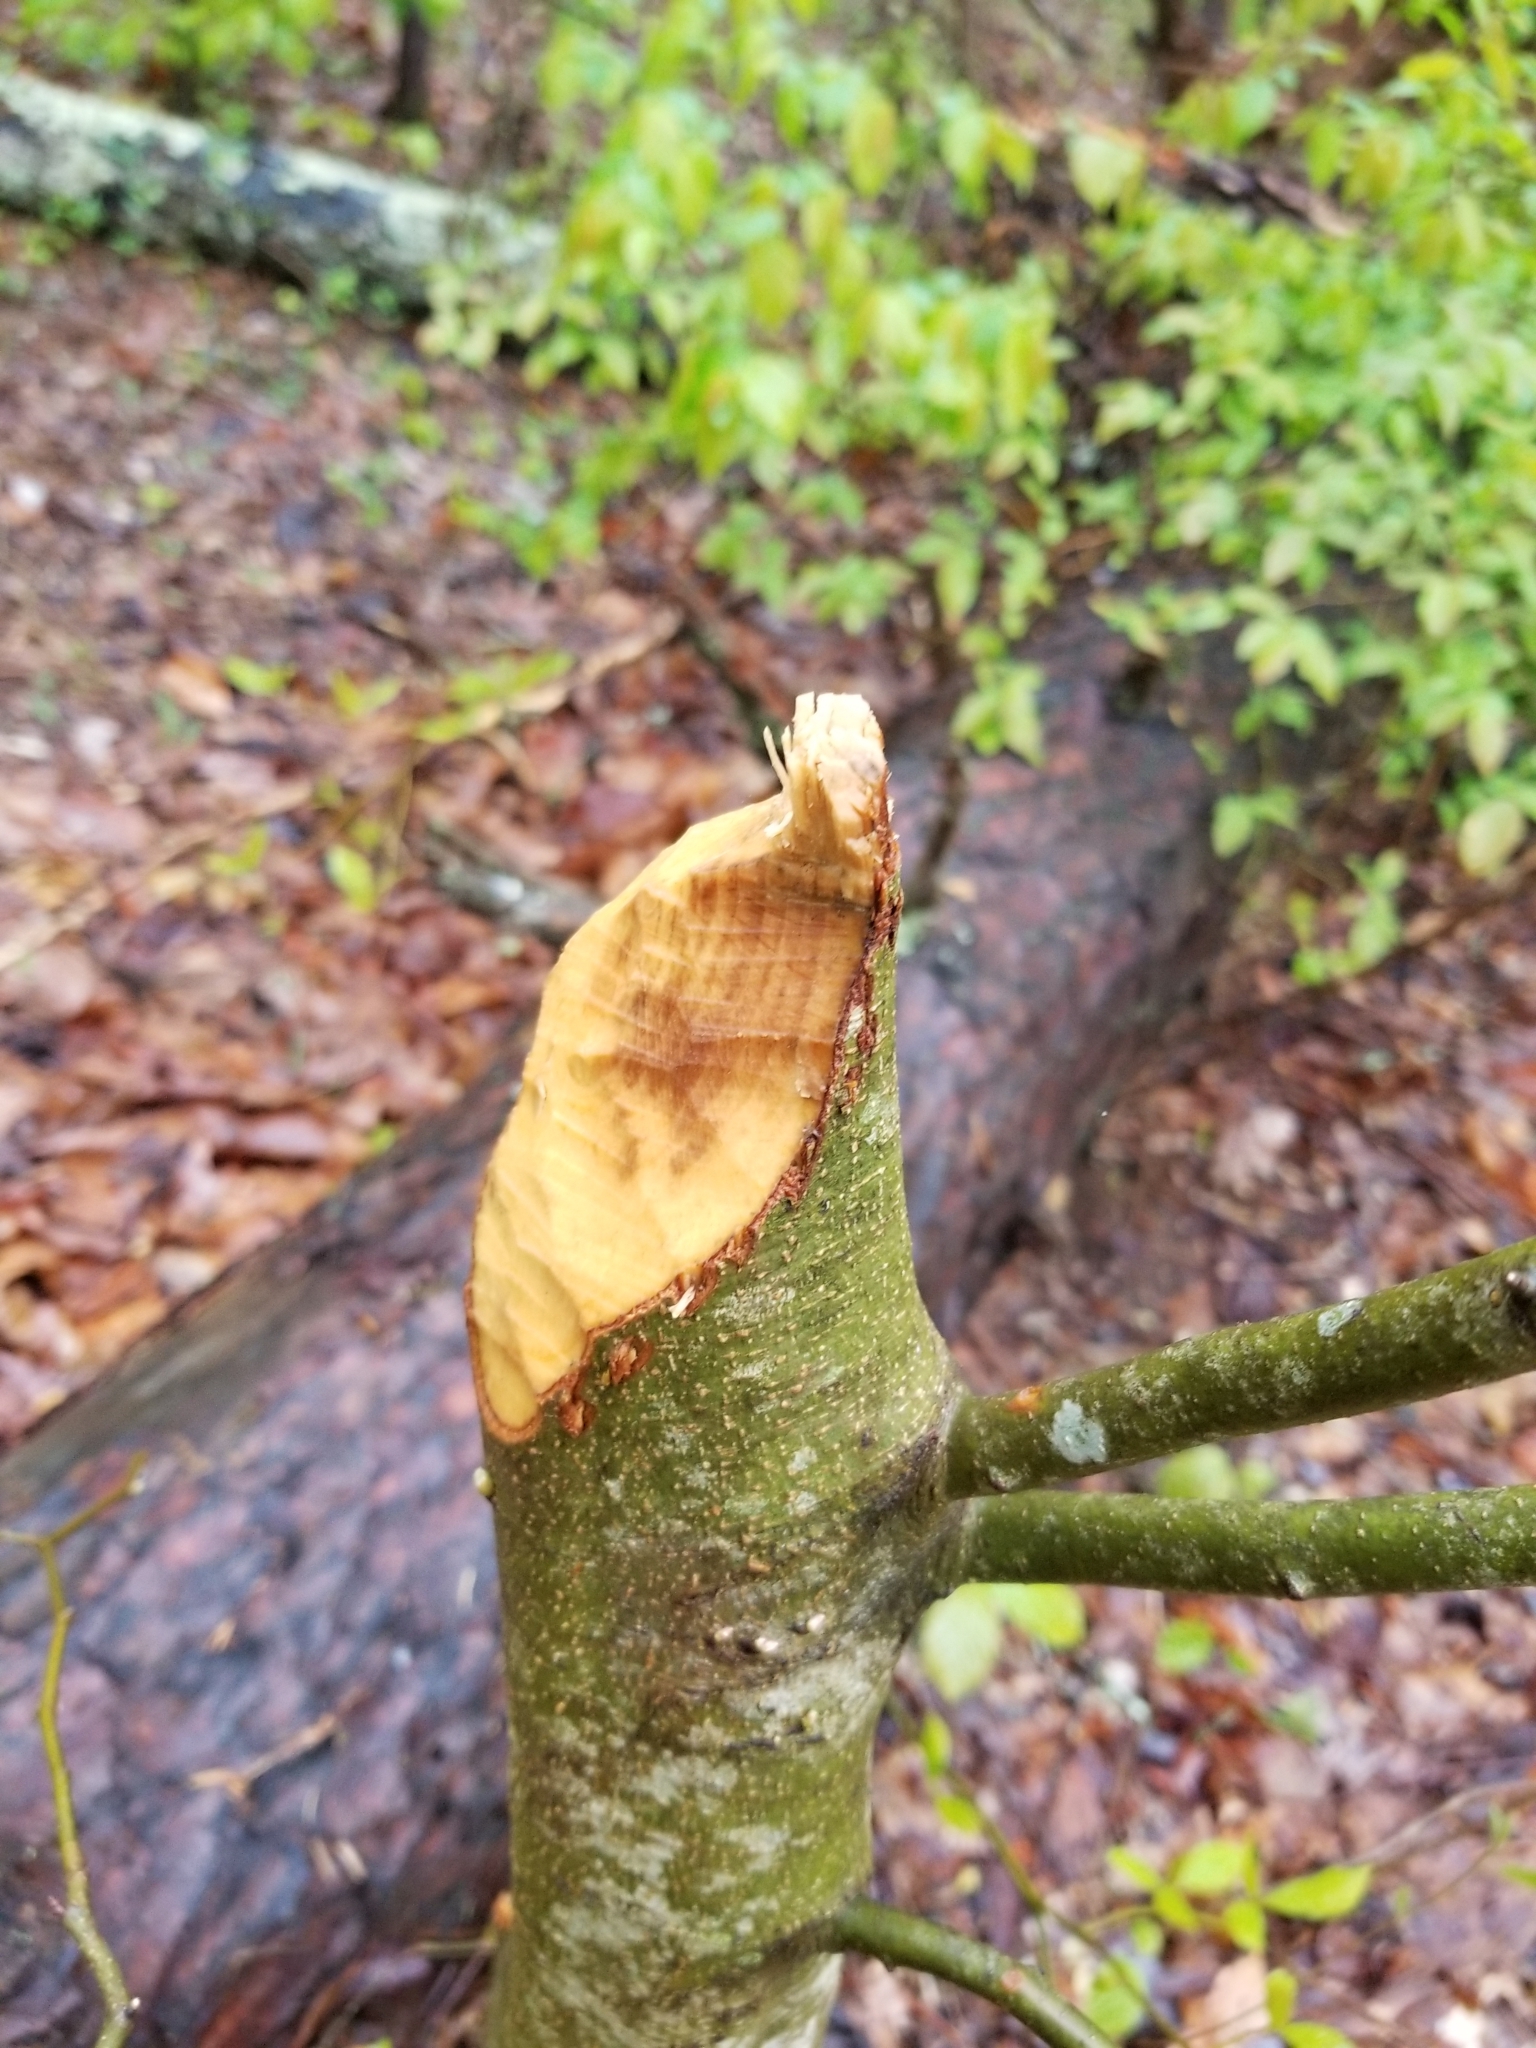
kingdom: Animalia
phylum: Chordata
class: Mammalia
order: Rodentia
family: Castoridae
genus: Castor
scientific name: Castor canadensis
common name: American beaver
